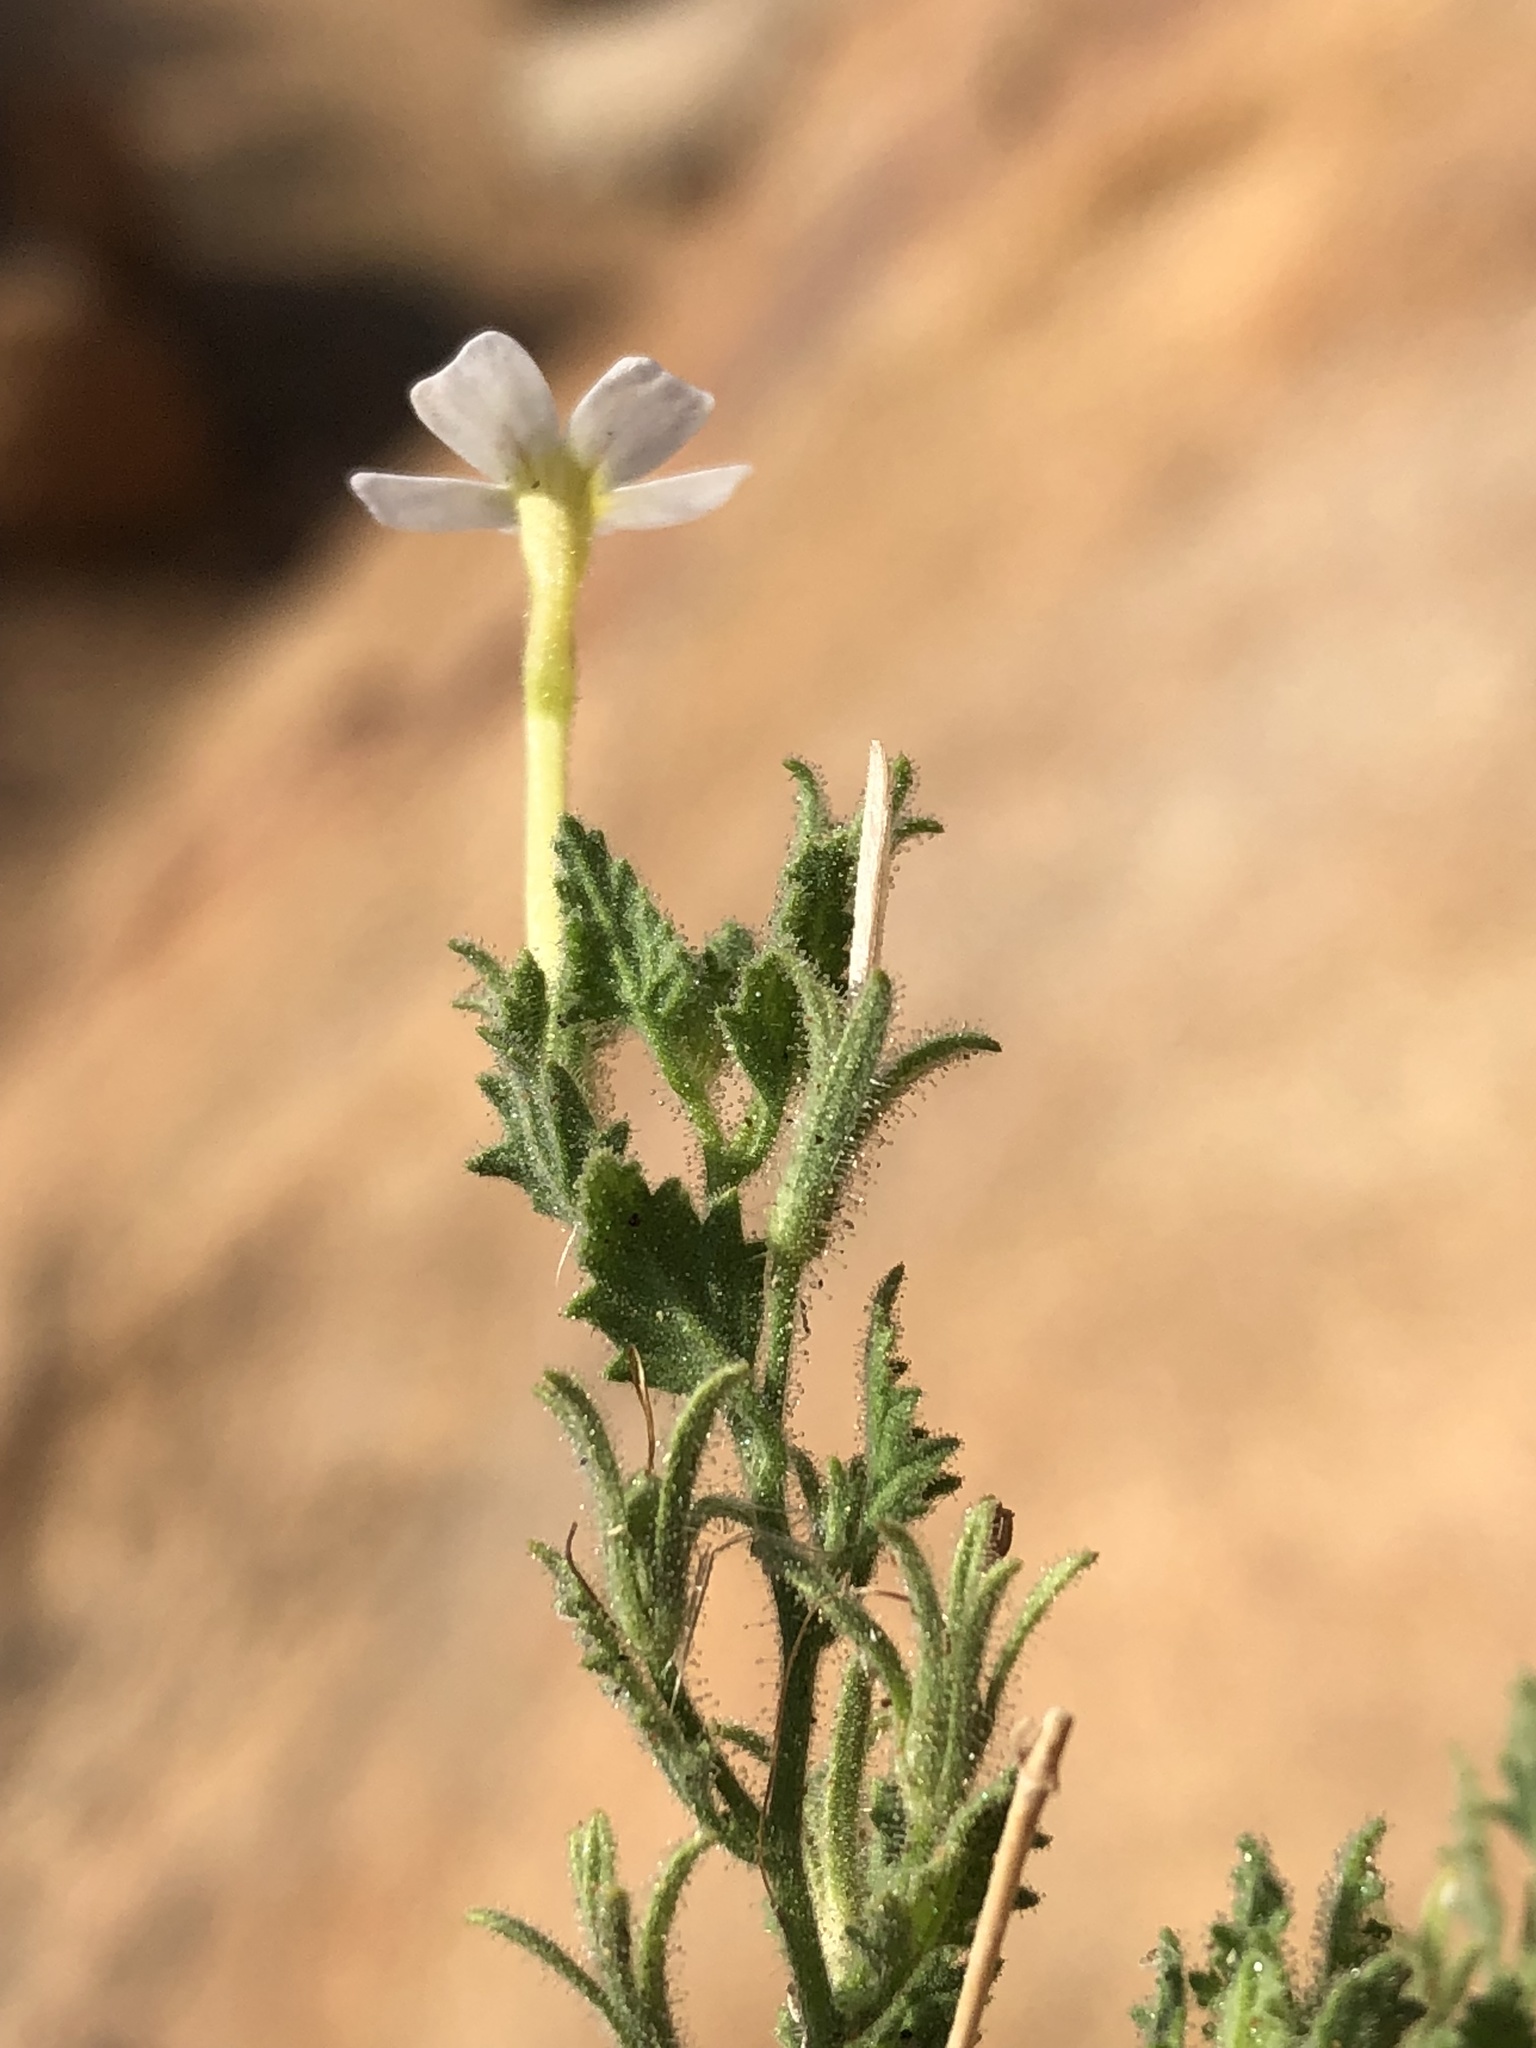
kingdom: Plantae
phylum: Tracheophyta
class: Magnoliopsida
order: Lamiales
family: Scrophulariaceae
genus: Jamesbrittenia
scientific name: Jamesbrittenia pallida
